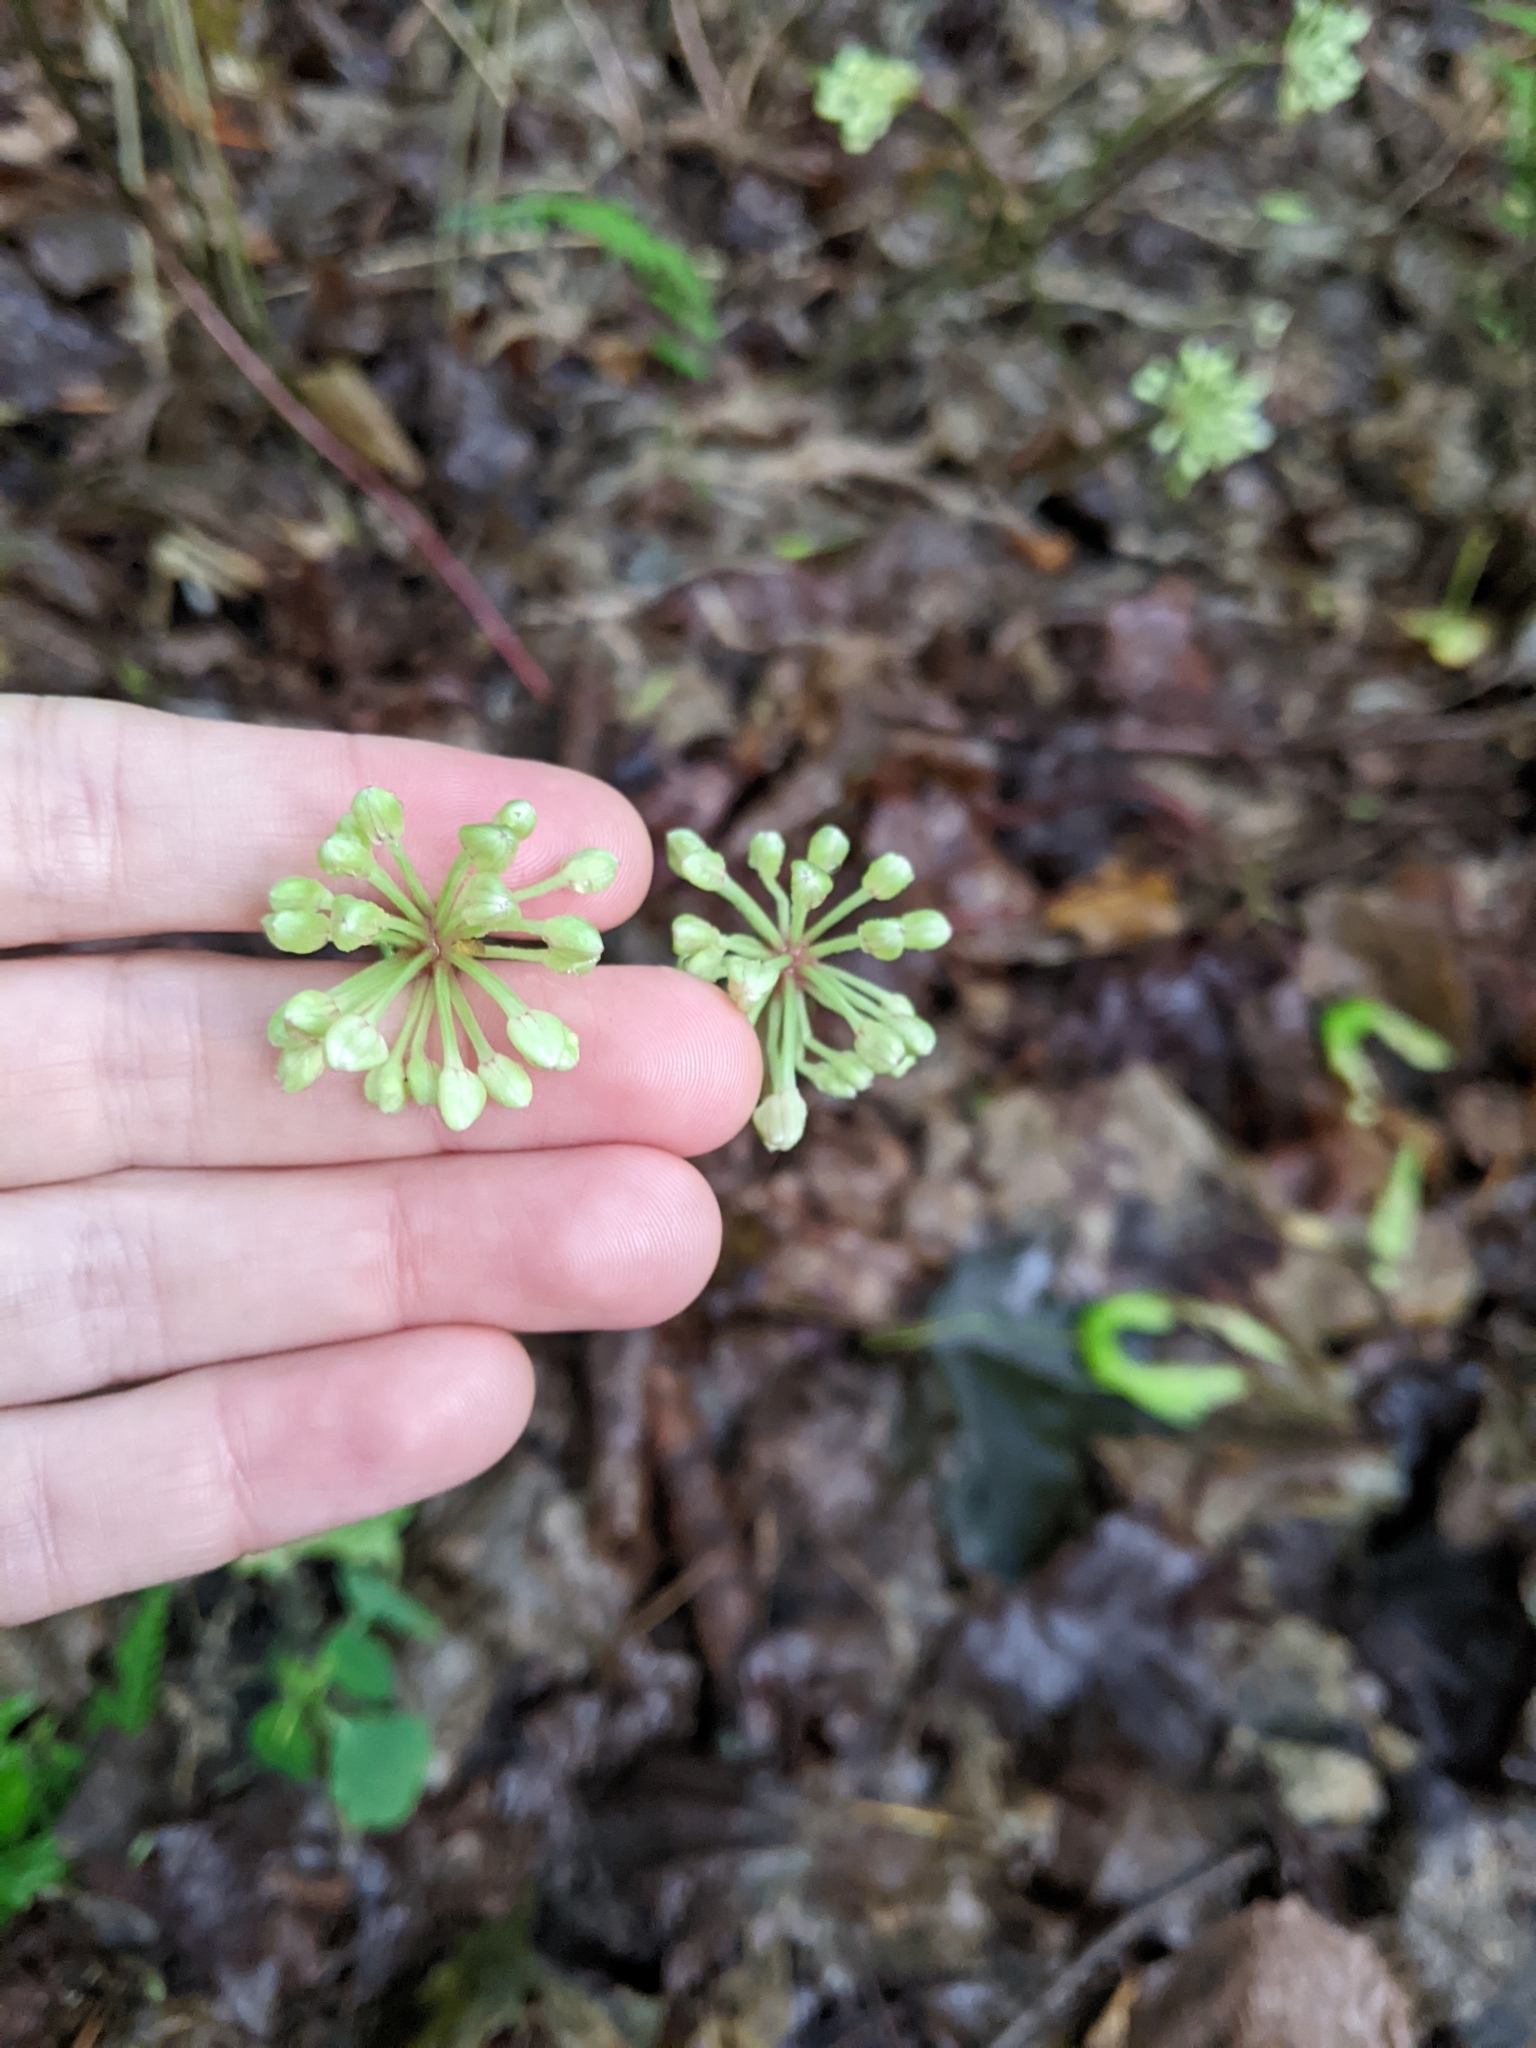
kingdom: Plantae
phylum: Tracheophyta
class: Liliopsida
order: Asparagales
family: Amaryllidaceae
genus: Allium
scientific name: Allium tricoccum
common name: Ramp
